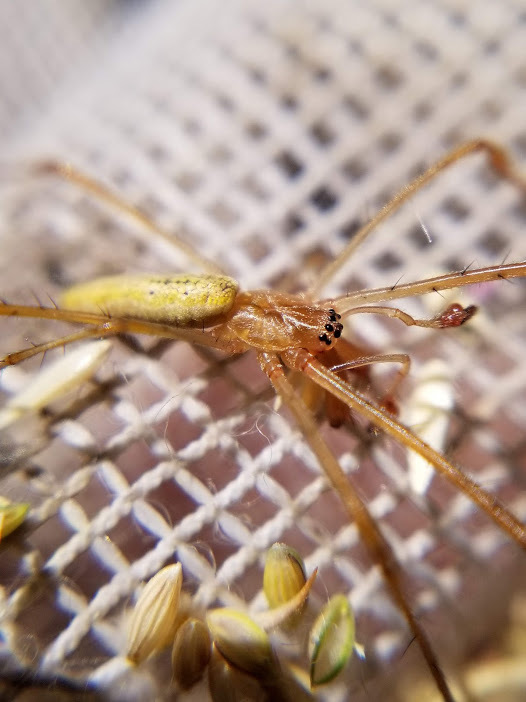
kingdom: Animalia
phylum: Arthropoda
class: Arachnida
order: Araneae
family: Tetragnathidae
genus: Tetragnatha
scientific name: Tetragnatha
